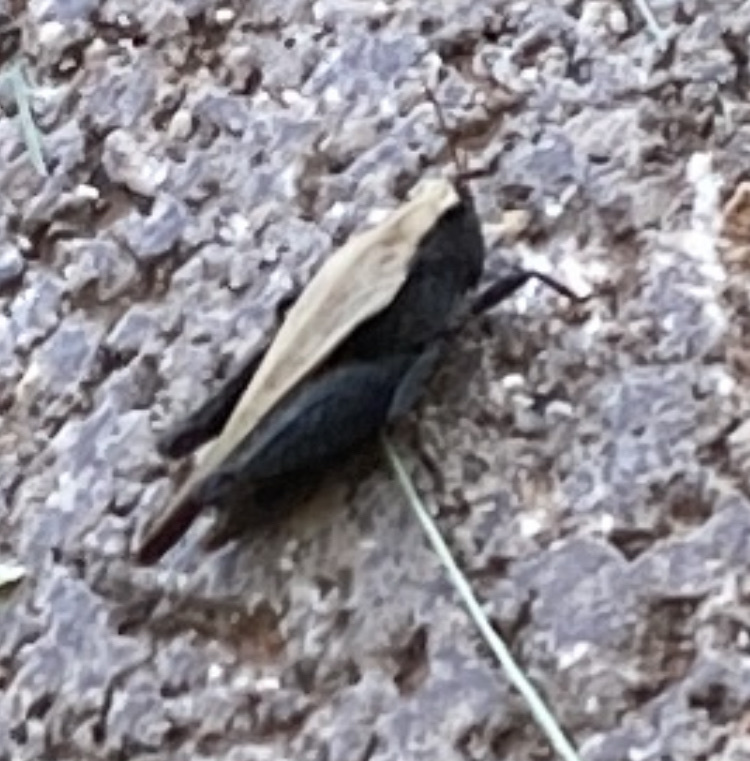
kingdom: Animalia
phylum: Arthropoda
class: Insecta
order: Orthoptera
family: Tetrigidae
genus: Tettigidea
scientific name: Tettigidea laterale
